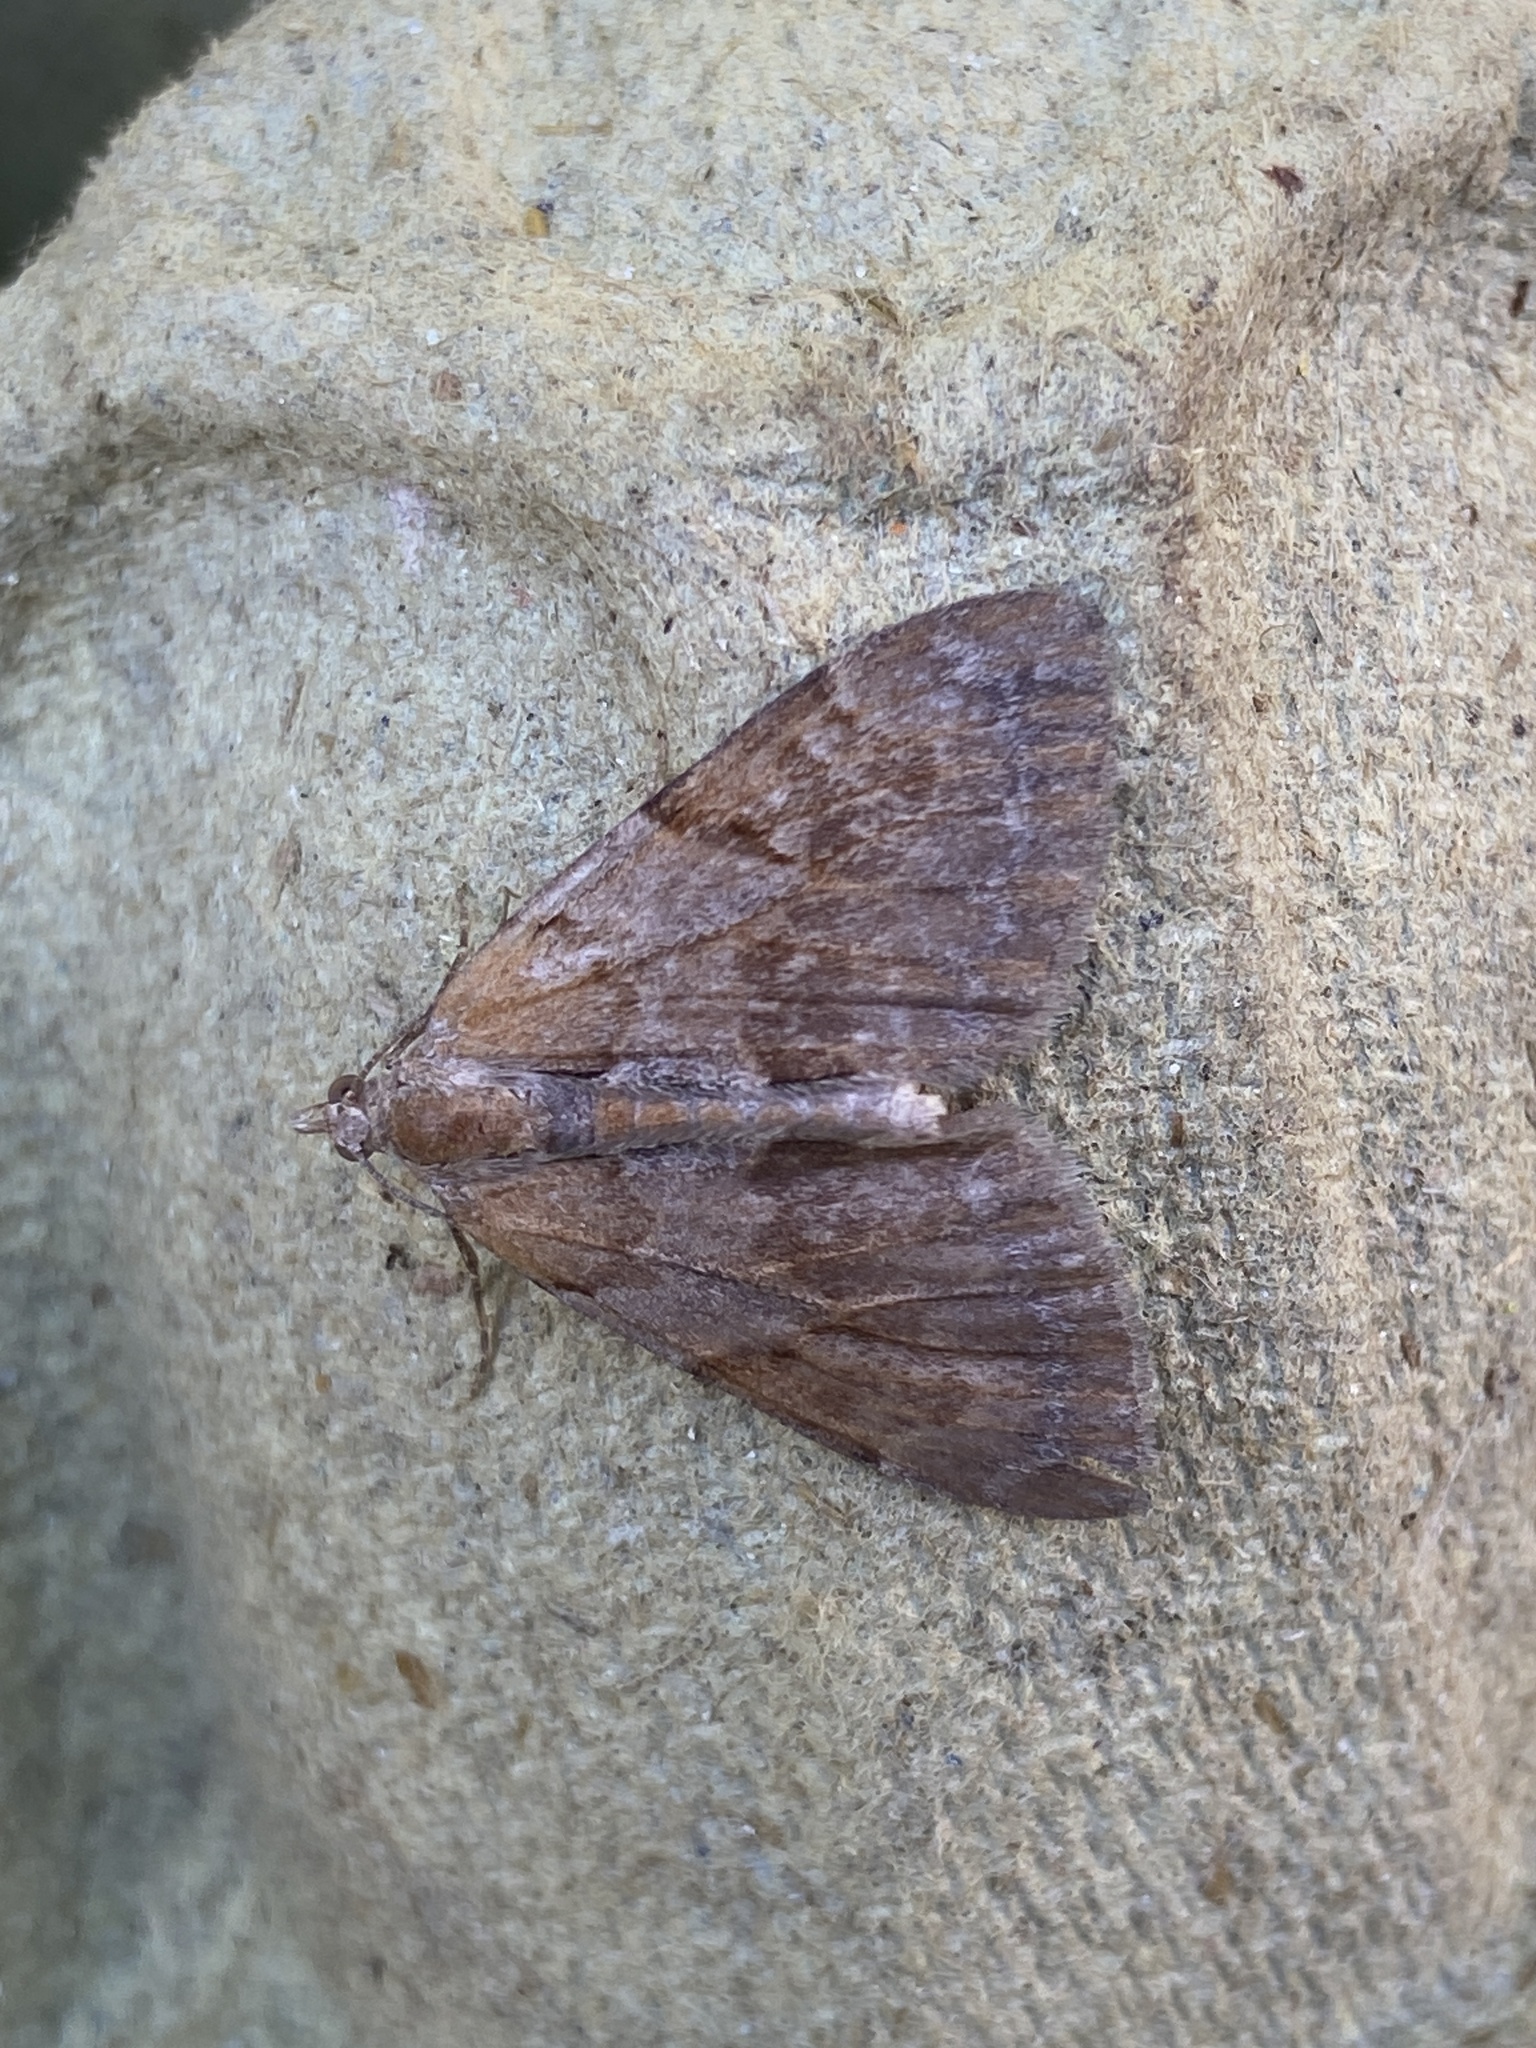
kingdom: Animalia
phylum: Arthropoda
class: Insecta
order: Lepidoptera
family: Geometridae
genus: Pennithera
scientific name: Pennithera firmata
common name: Pine carpet
